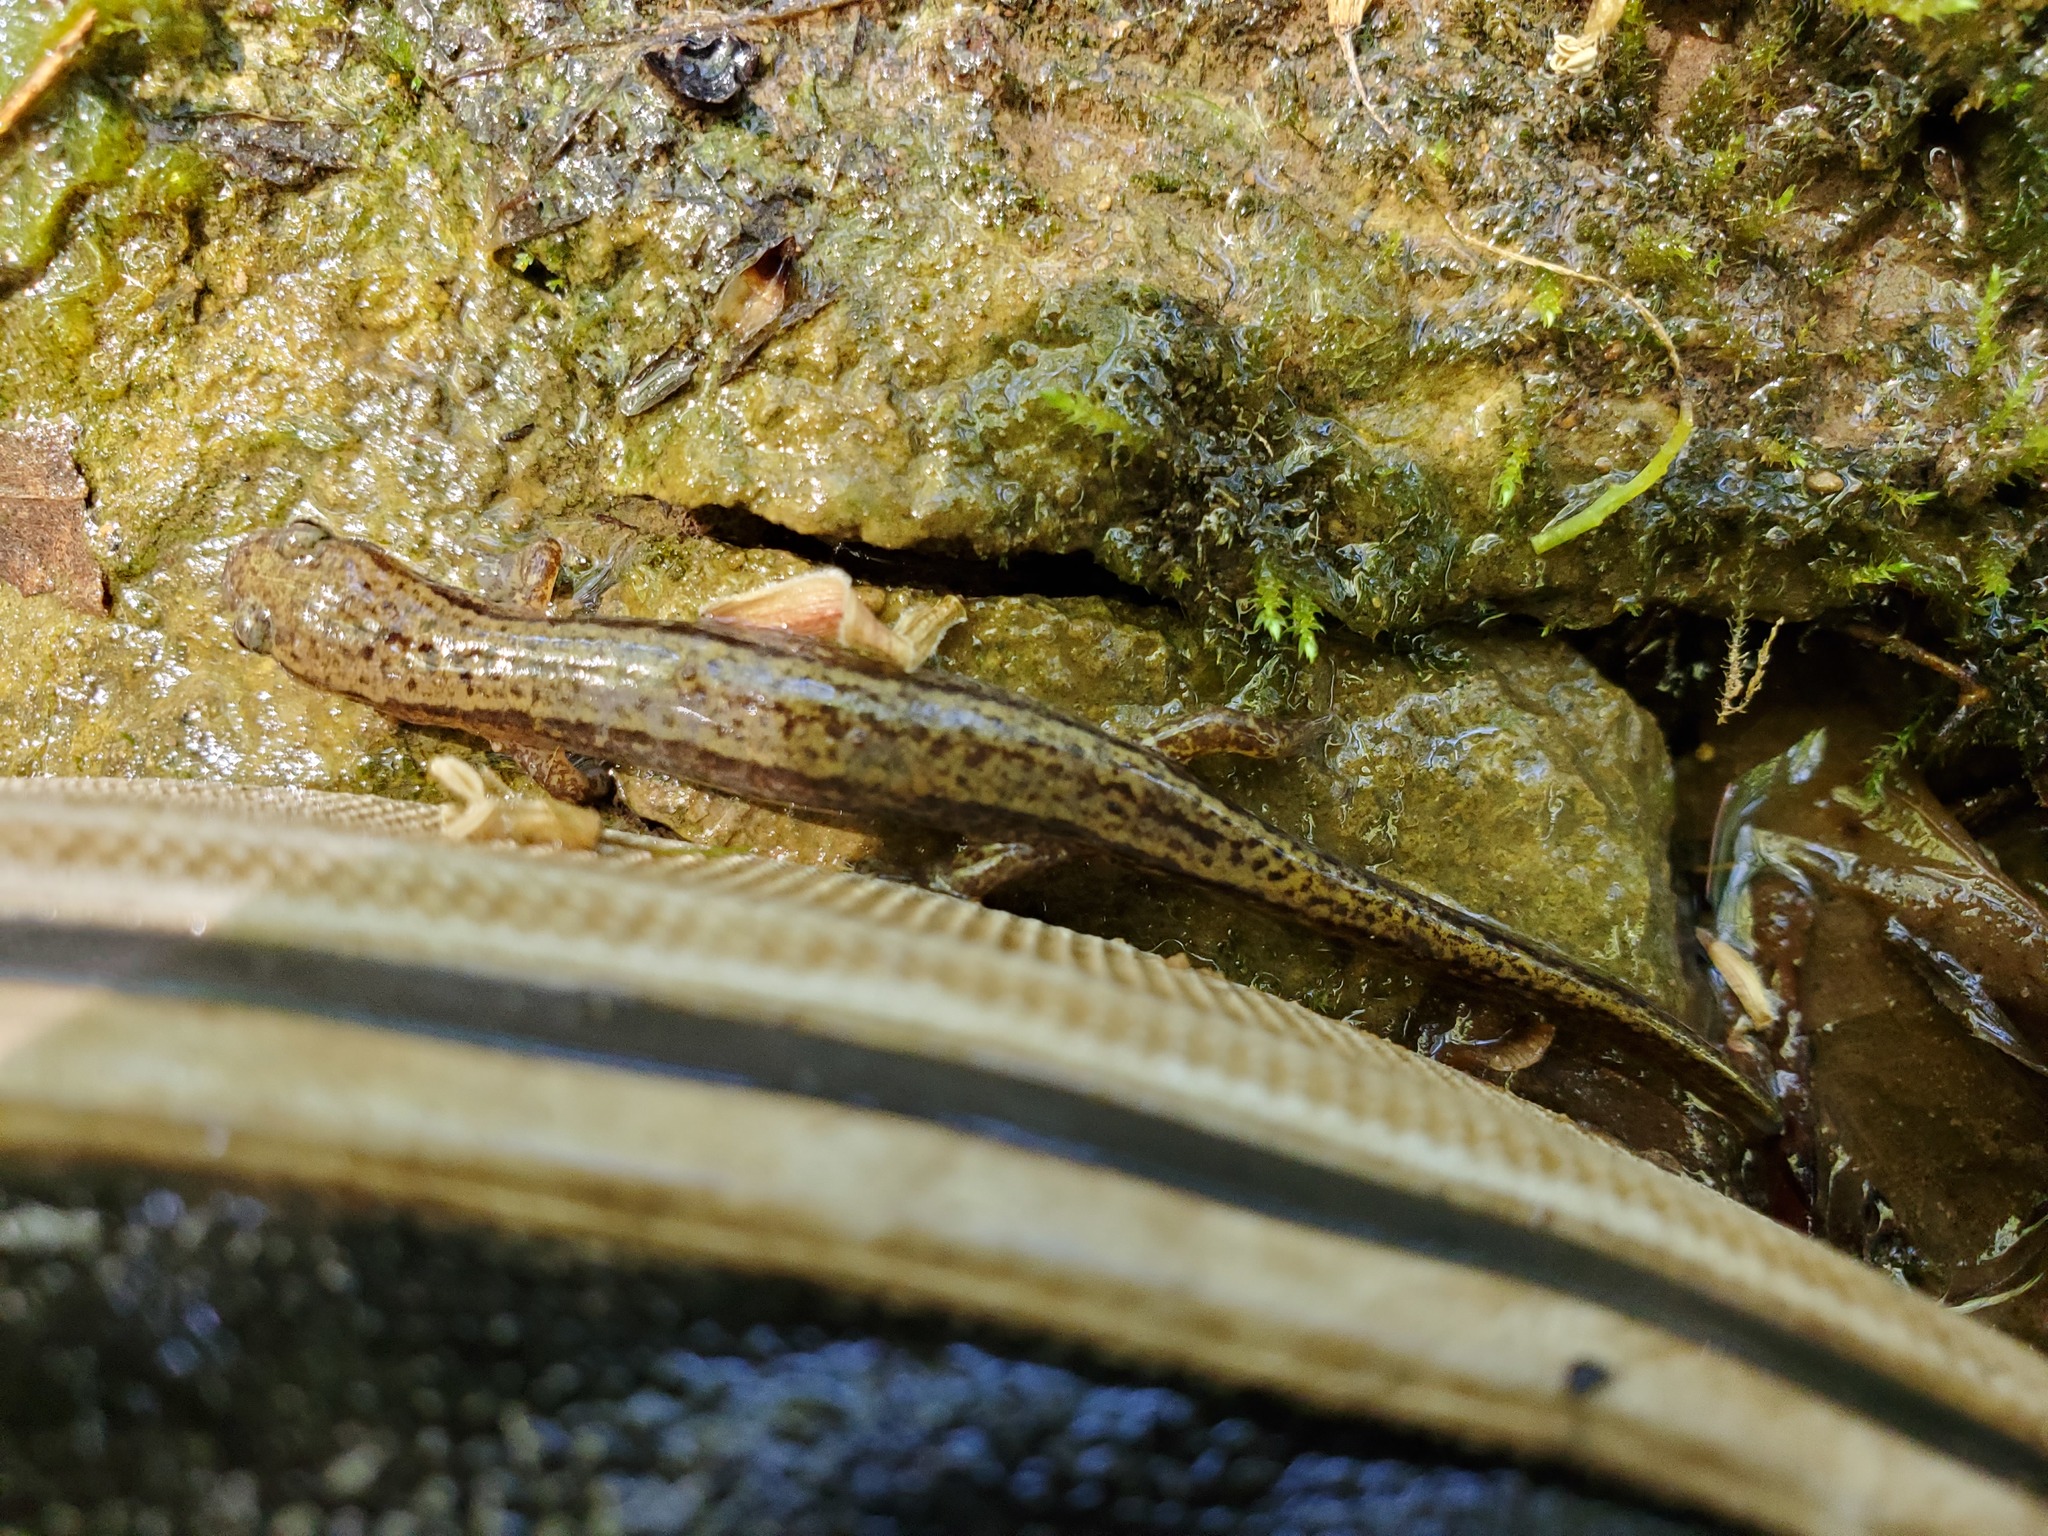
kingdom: Animalia
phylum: Chordata
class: Amphibia
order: Caudata
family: Plethodontidae
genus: Eurycea
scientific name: Eurycea cirrigera
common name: Southern two-lined salamander
